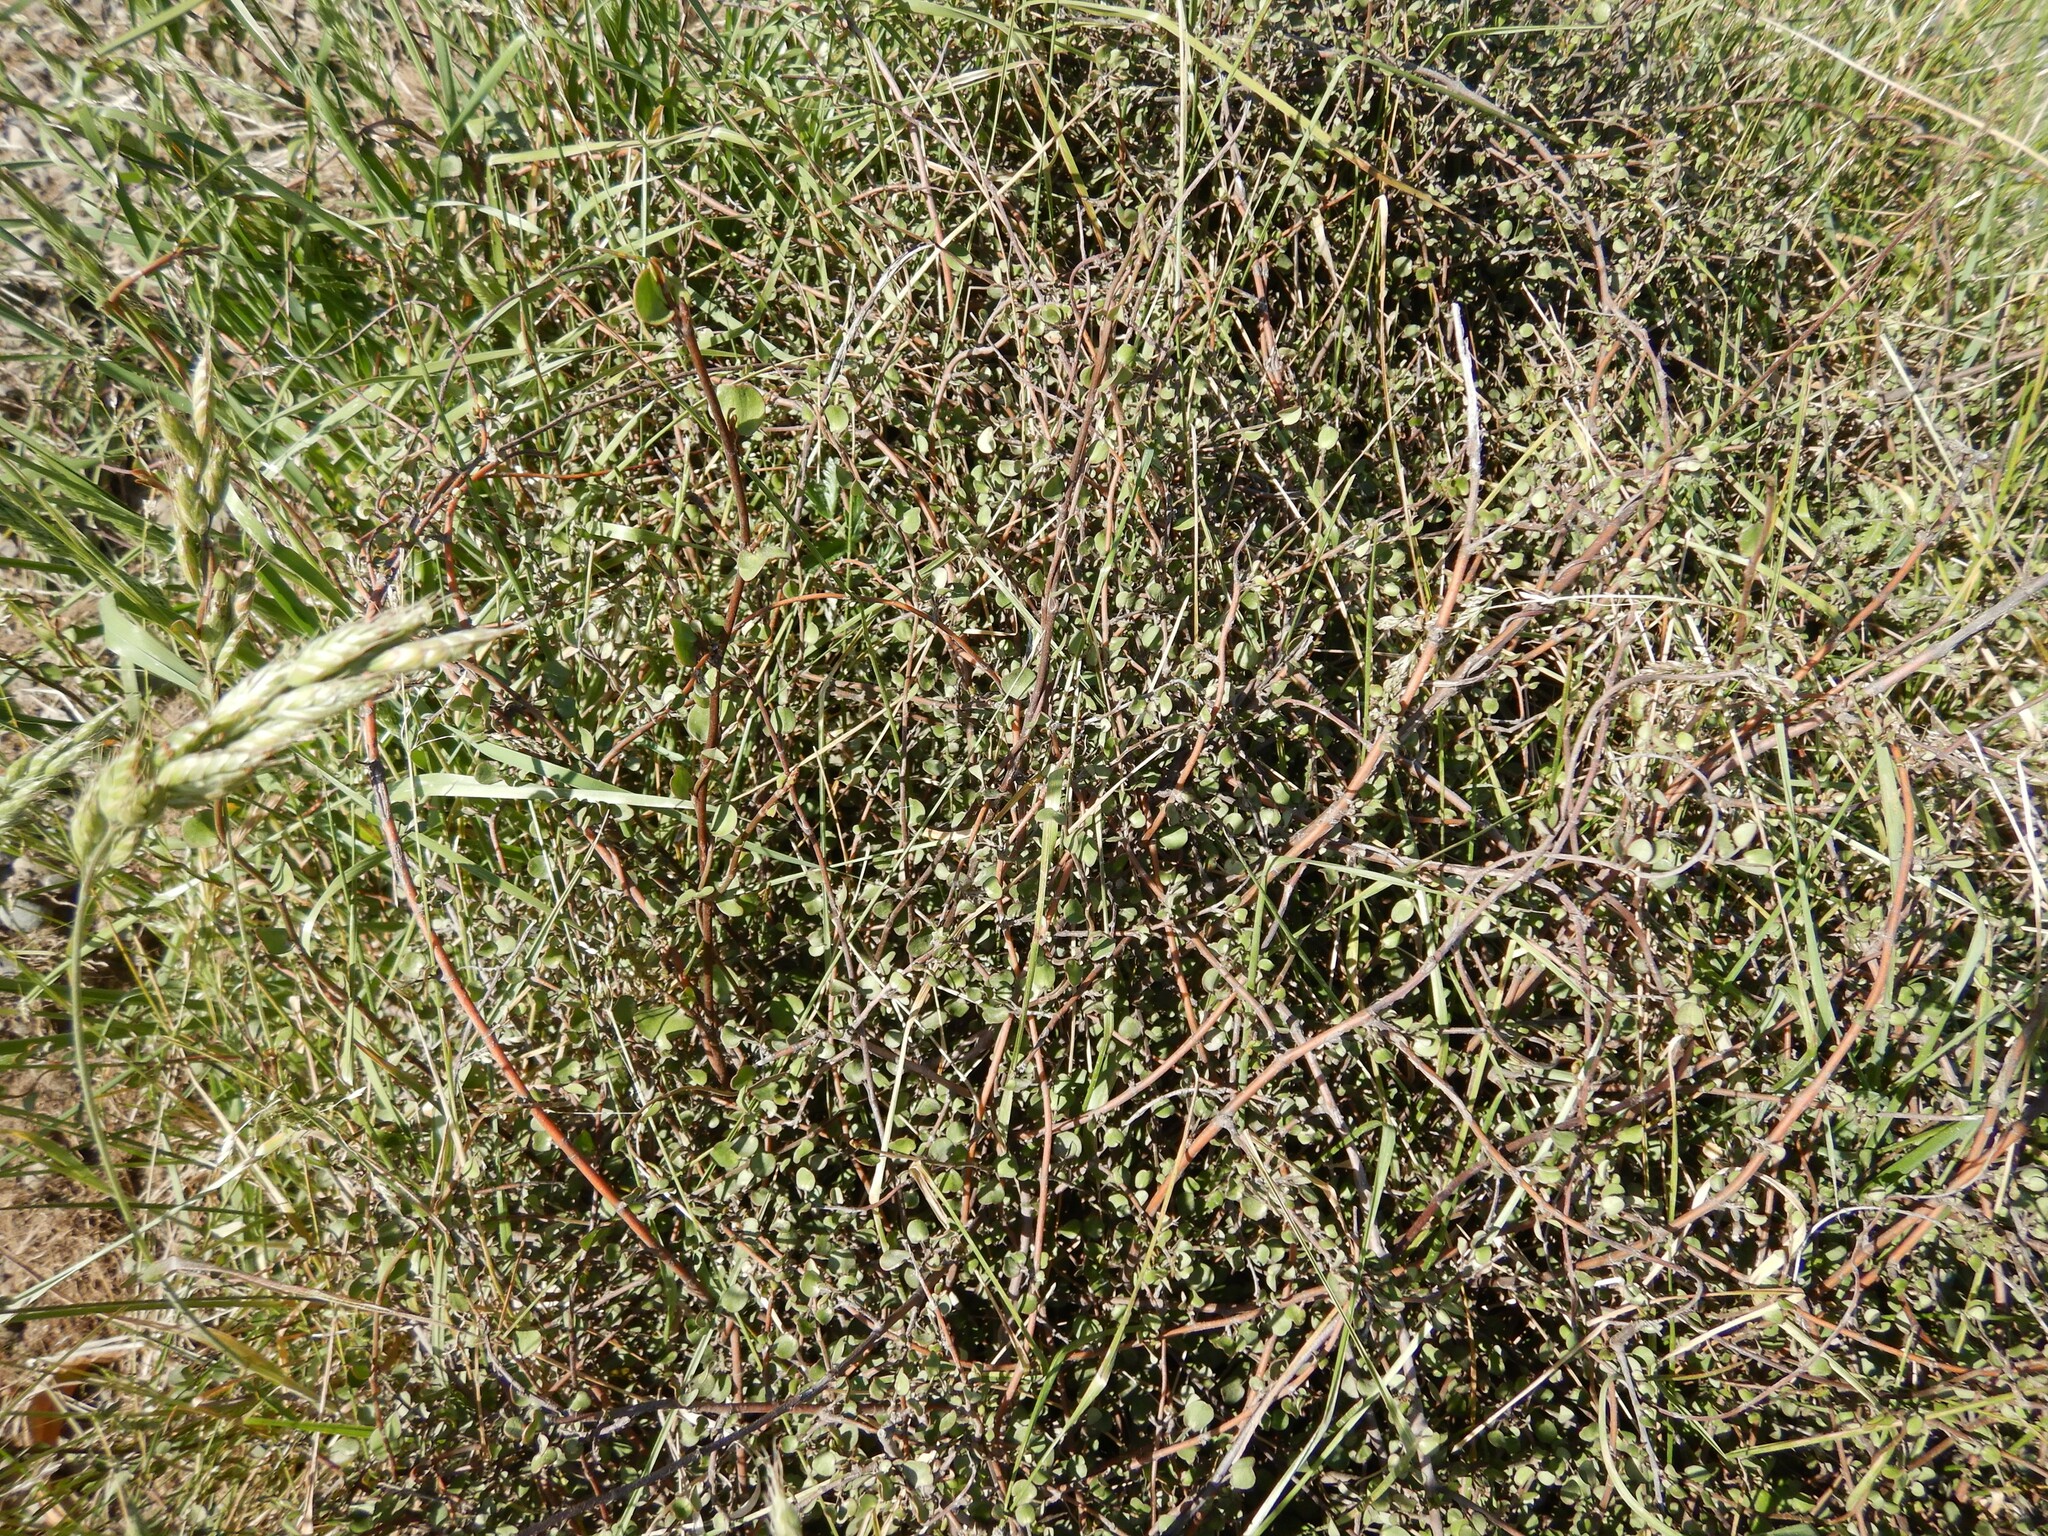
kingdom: Plantae
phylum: Tracheophyta
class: Magnoliopsida
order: Caryophyllales
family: Polygonaceae
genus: Muehlenbeckia
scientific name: Muehlenbeckia complexa
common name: Wireplant
